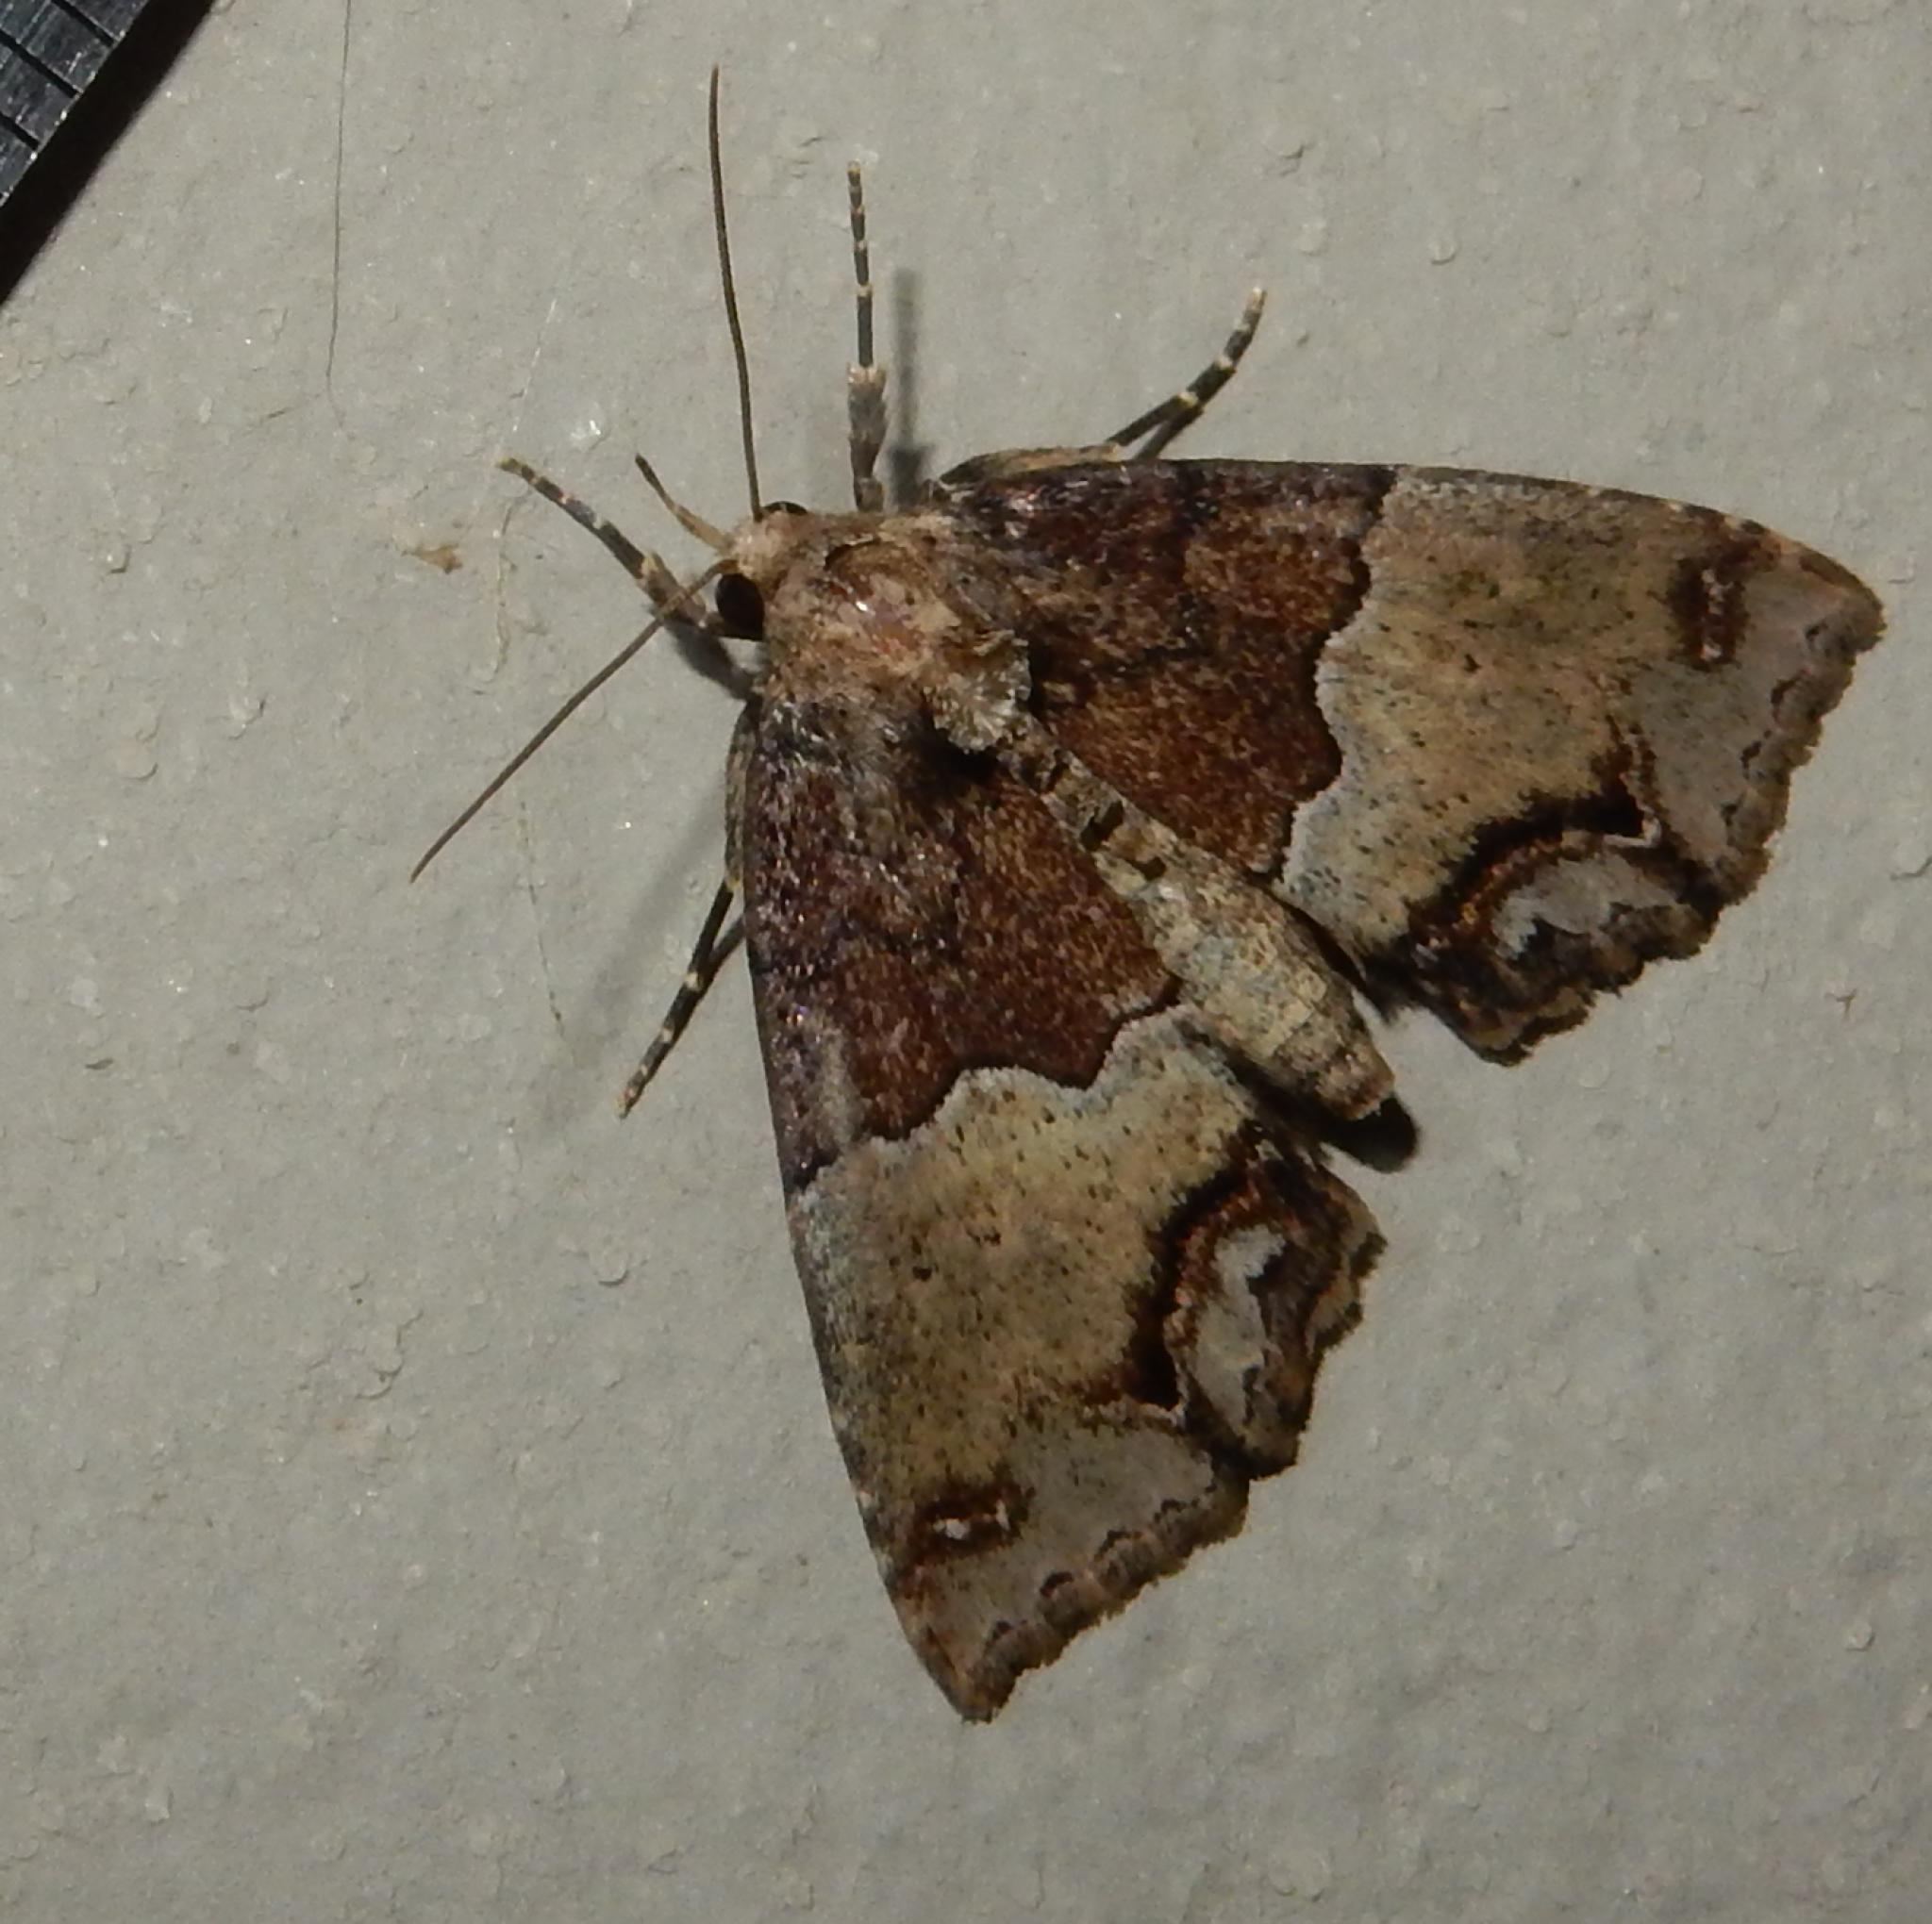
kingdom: Animalia
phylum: Arthropoda
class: Insecta
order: Lepidoptera
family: Erebidae
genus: Sarmatia
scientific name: Sarmatia interitalis
